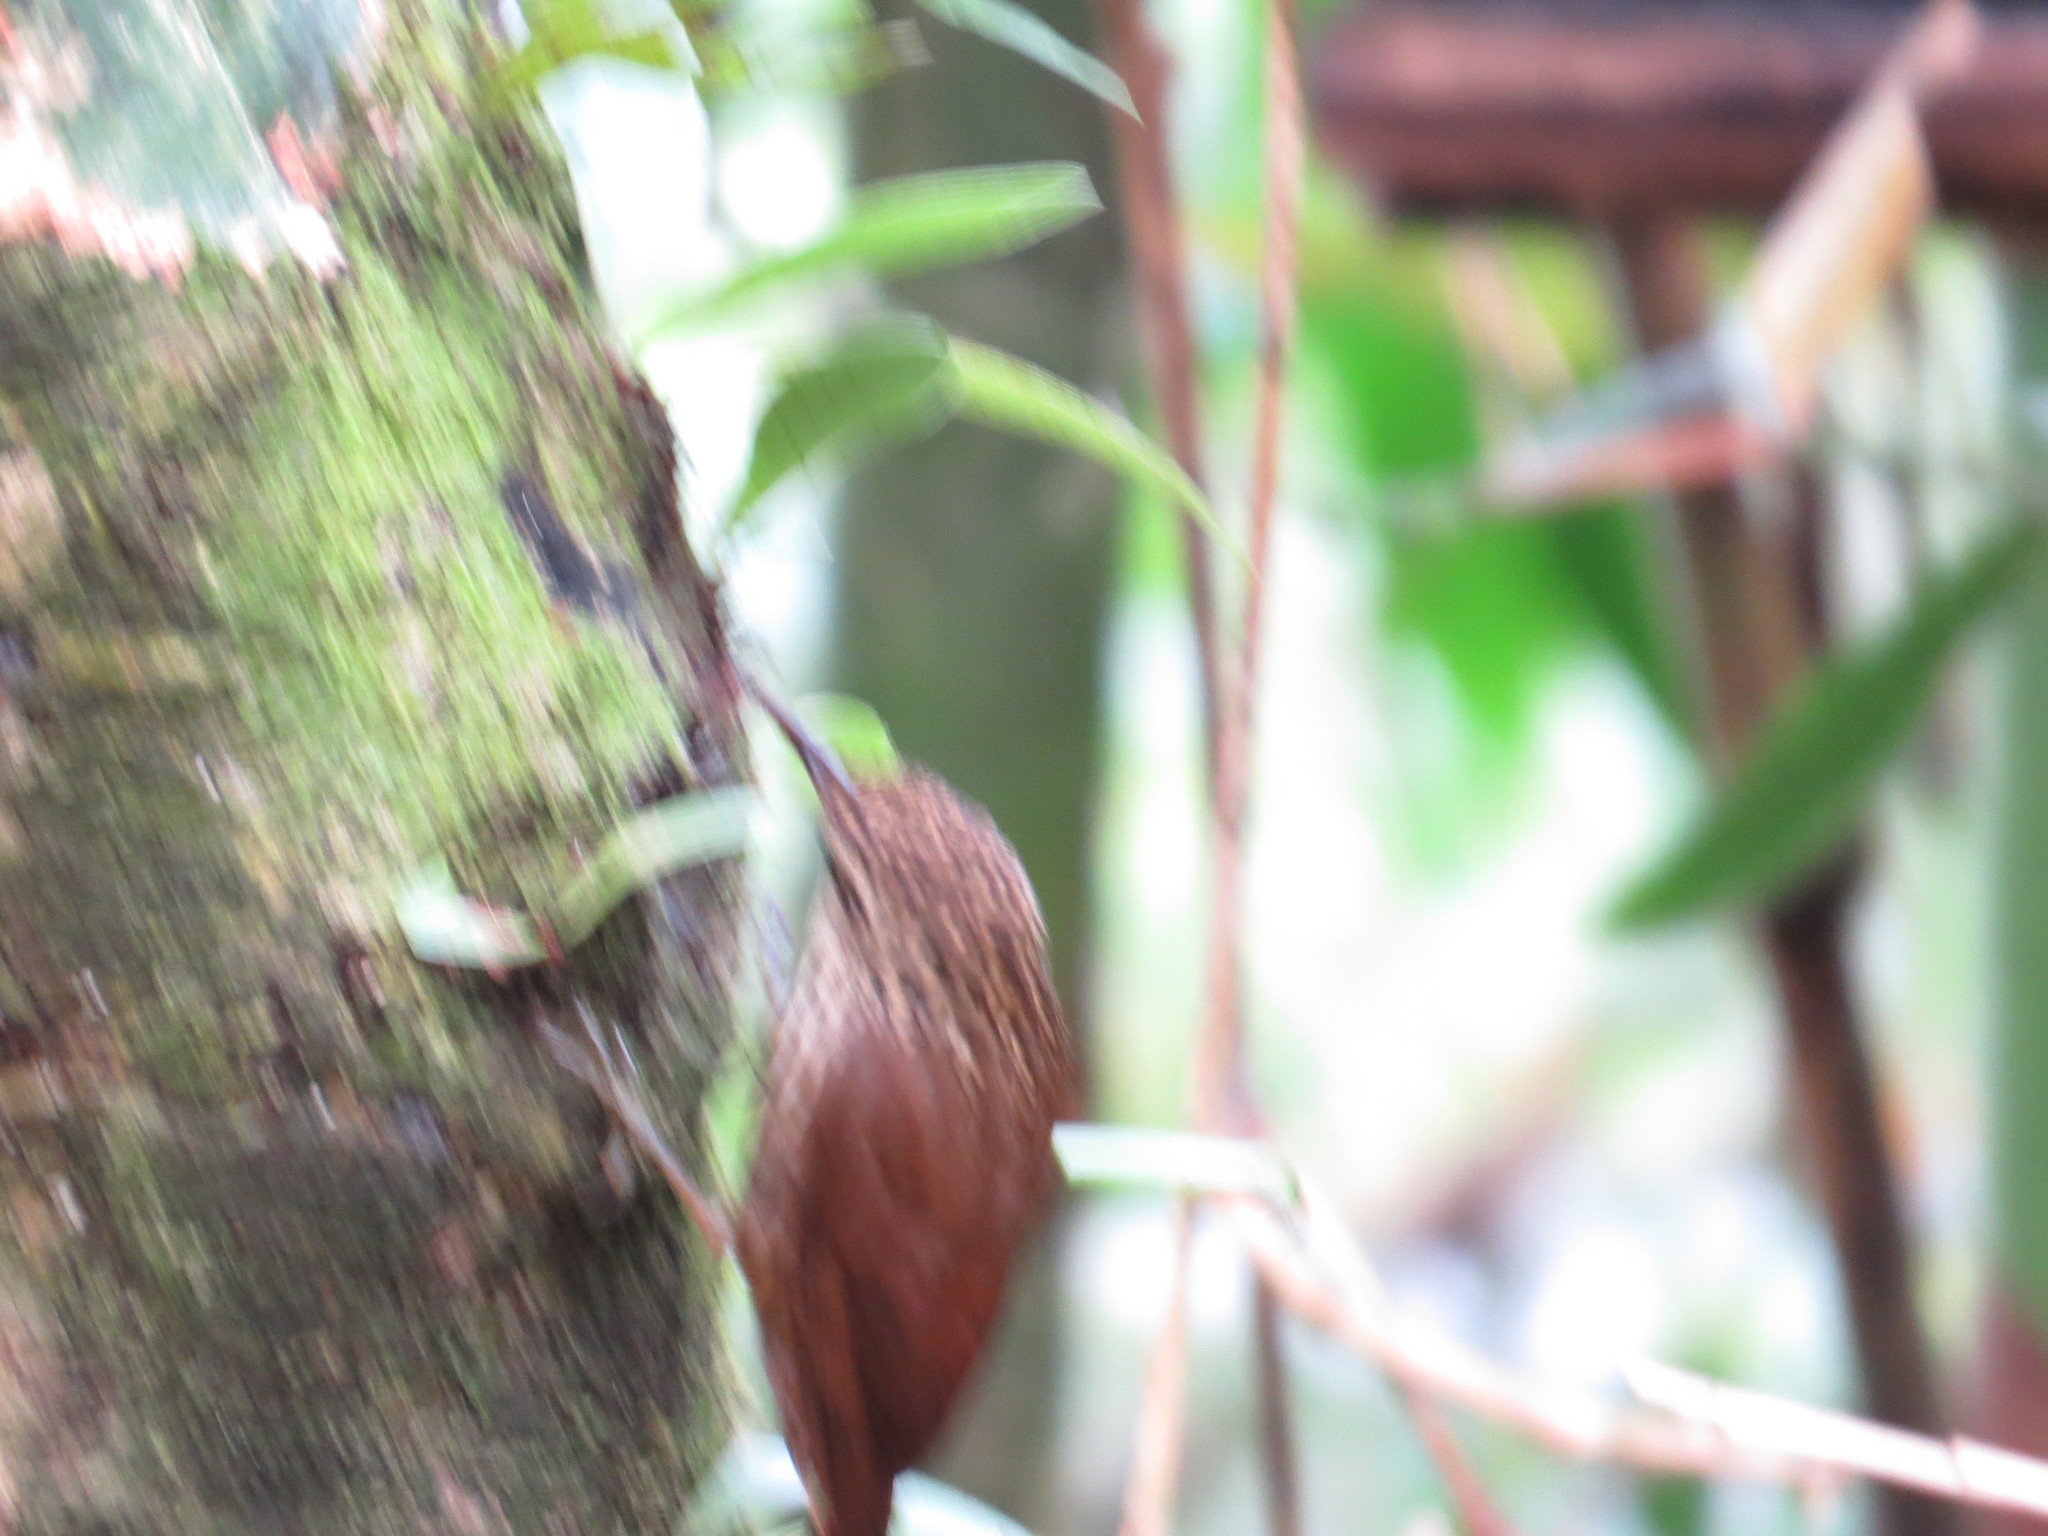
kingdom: Animalia
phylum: Chordata
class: Aves
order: Passeriformes
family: Furnariidae
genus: Xiphorhynchus
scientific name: Xiphorhynchus fuscus
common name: Lesser woodcreeper
